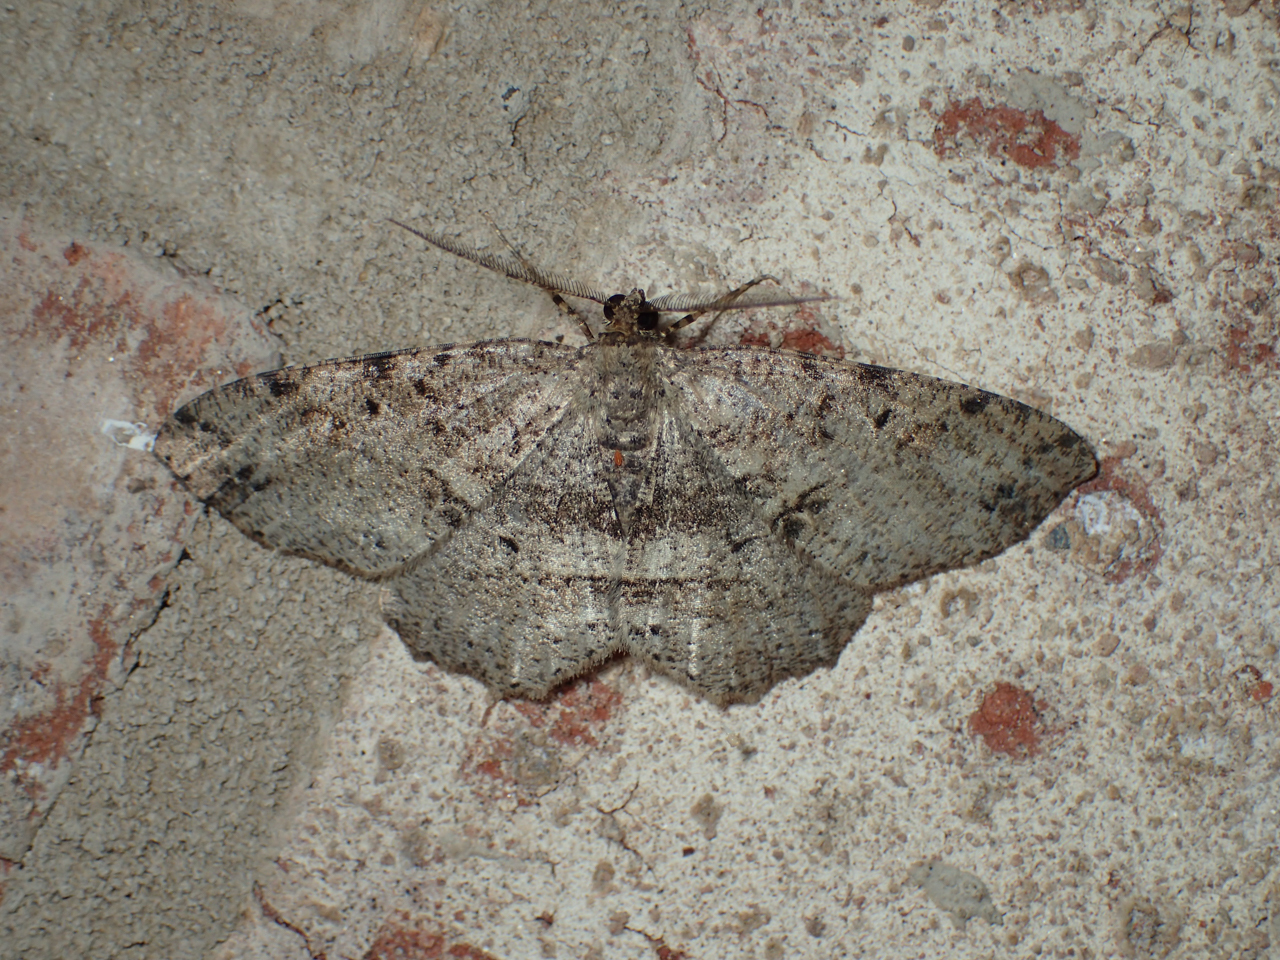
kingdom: Animalia
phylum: Arthropoda
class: Insecta
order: Lepidoptera
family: Geometridae
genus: Melanolophia
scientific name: Melanolophia canadaria
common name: Canadian melanolophia
